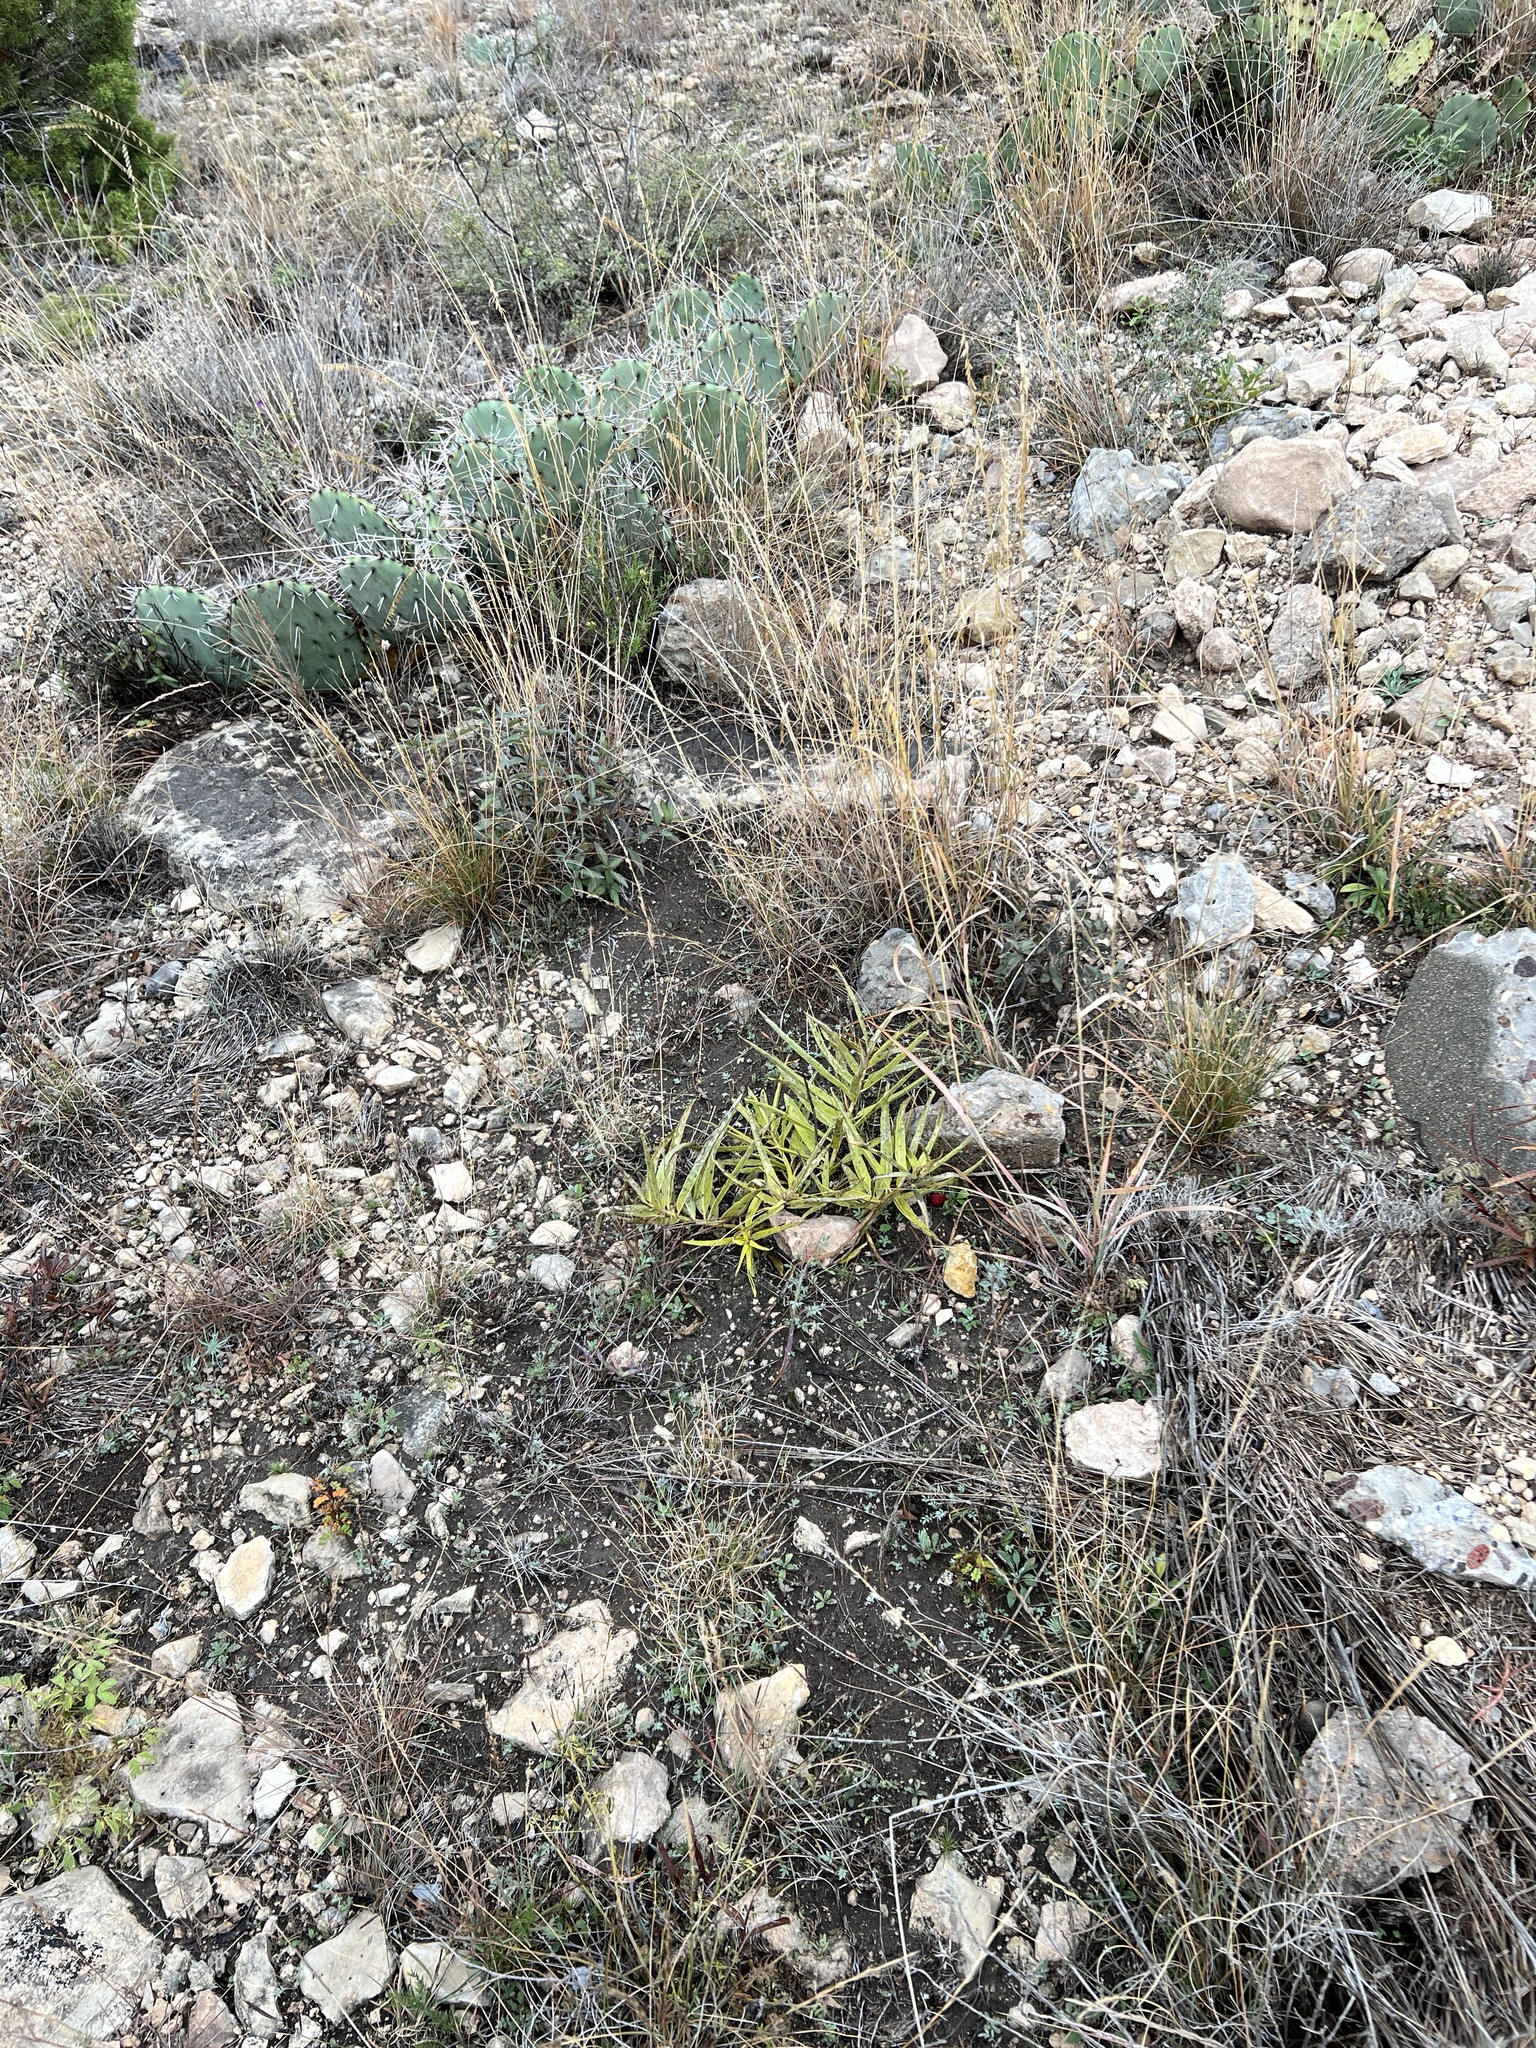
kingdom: Plantae
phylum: Tracheophyta
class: Magnoliopsida
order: Gentianales
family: Apocynaceae
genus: Asclepias
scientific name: Asclepias asperula
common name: Antelope horns
